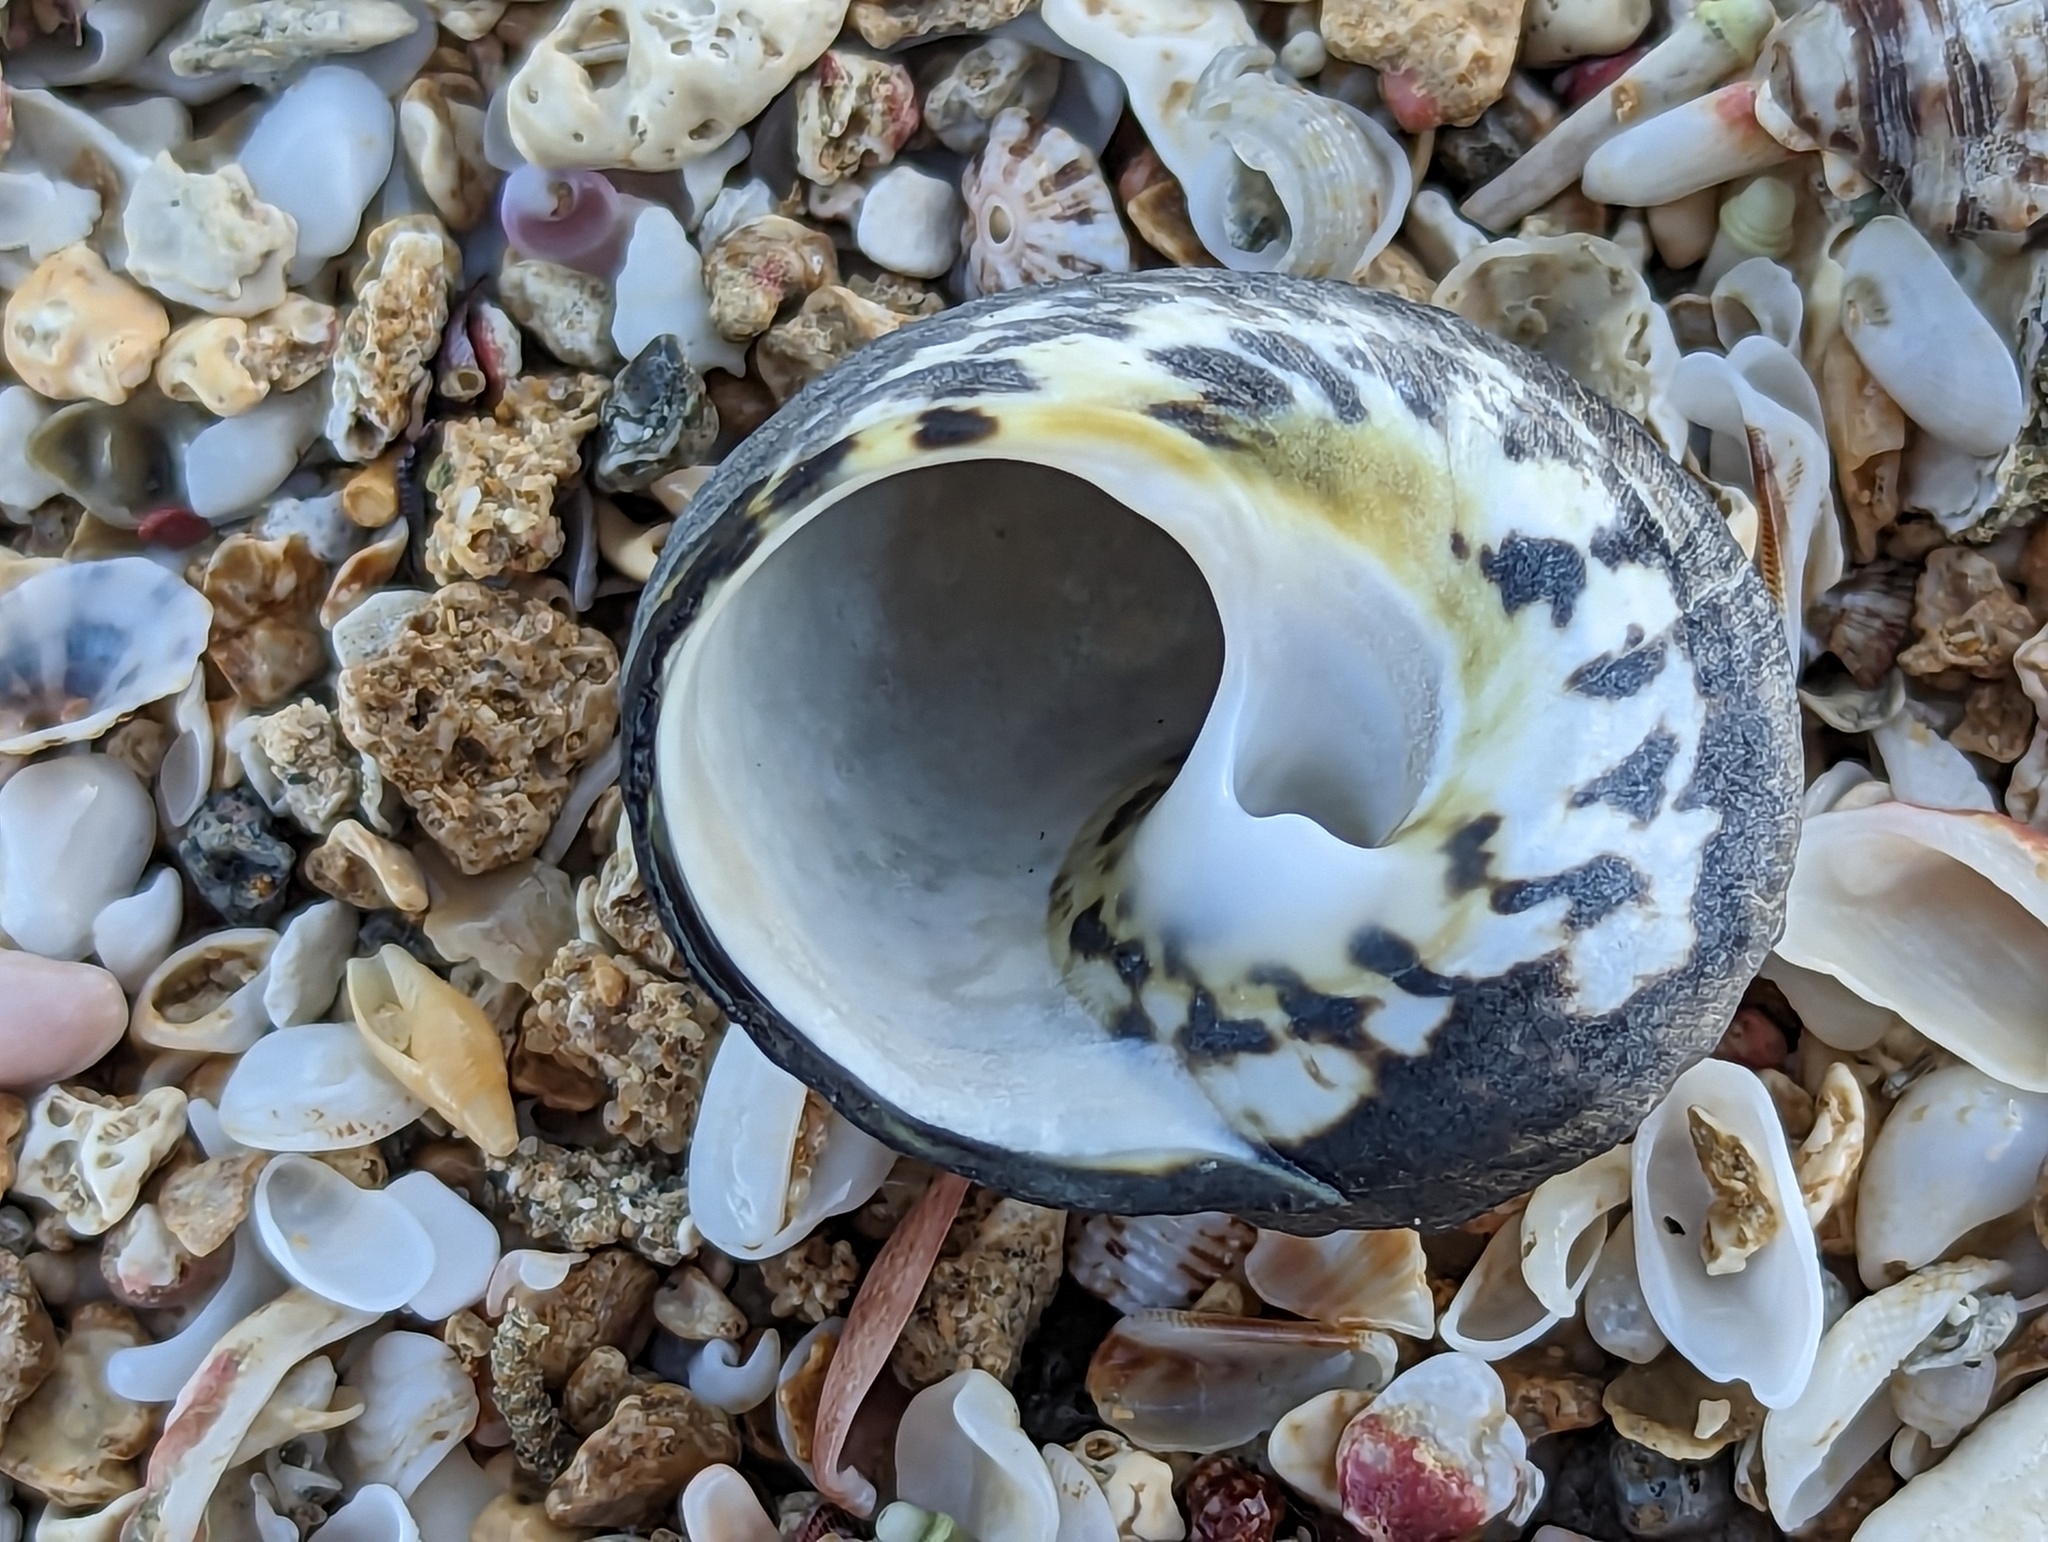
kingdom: Animalia
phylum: Mollusca
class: Gastropoda
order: Trochida
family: Tegulidae
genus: Cittarium
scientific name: Cittarium pica
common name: West indian topshell
